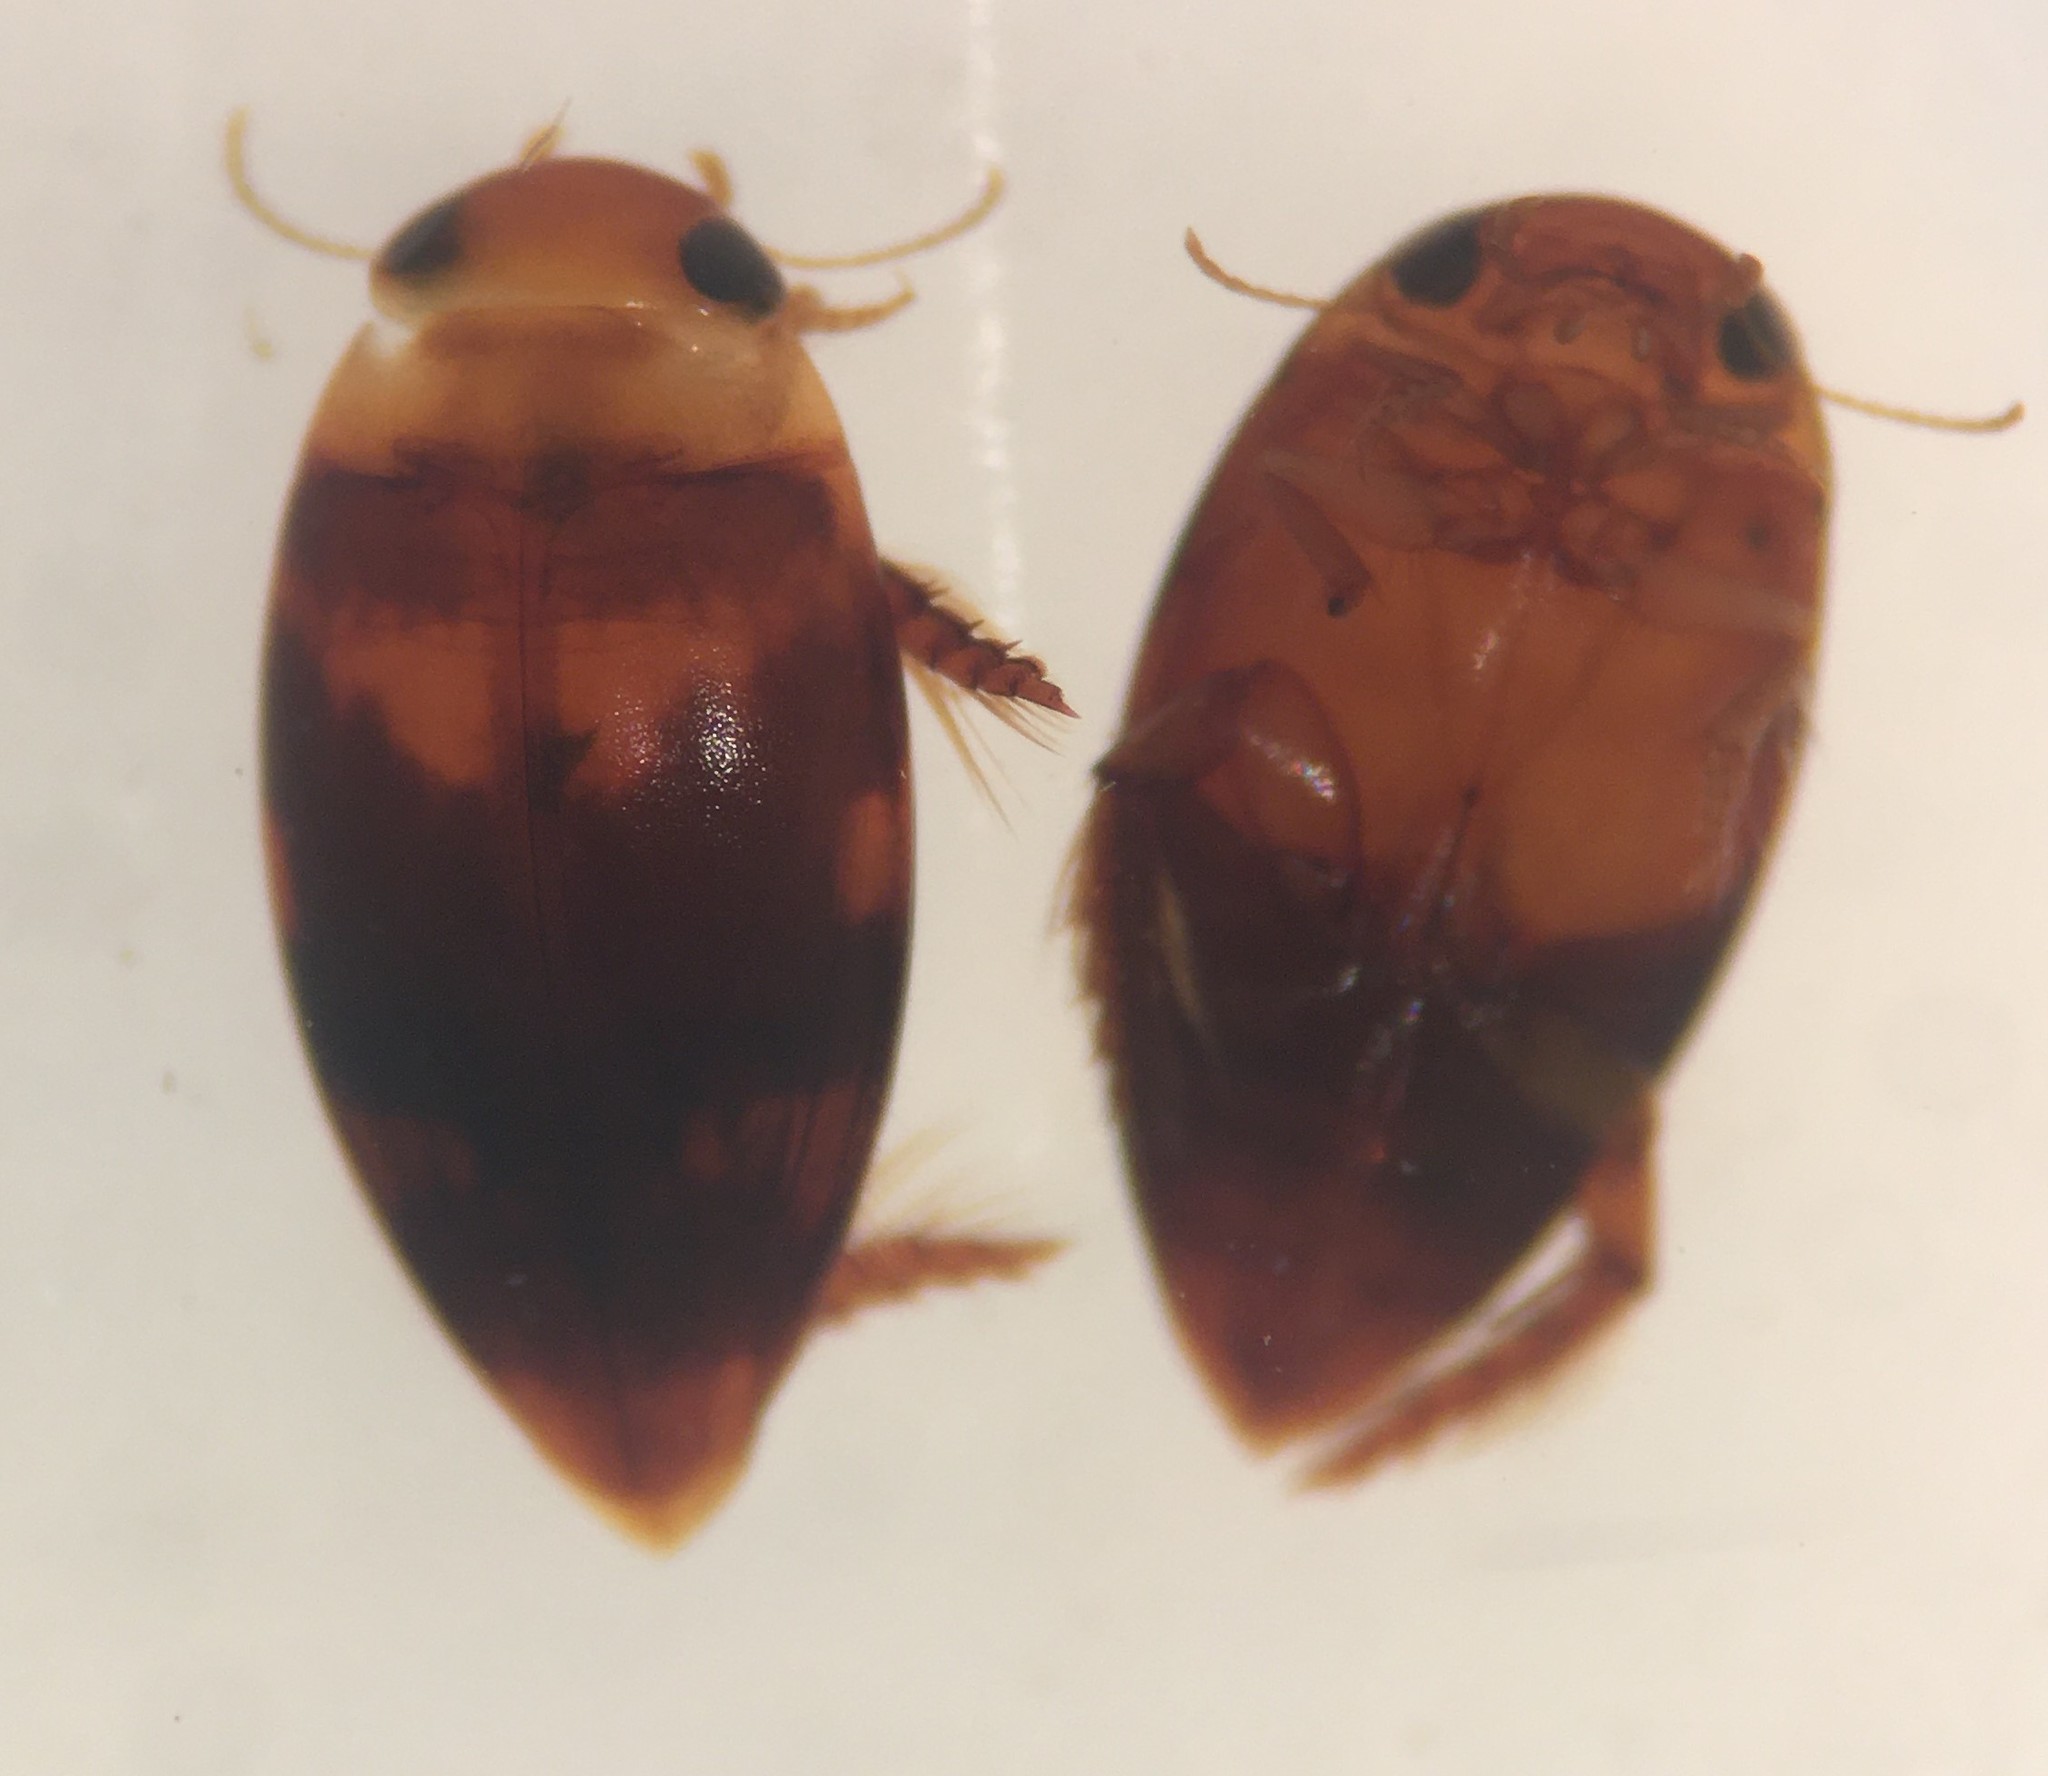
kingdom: Animalia
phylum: Arthropoda
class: Insecta
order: Coleoptera
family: Dytiscidae
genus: Laccophilus
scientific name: Laccophilus gentilis
